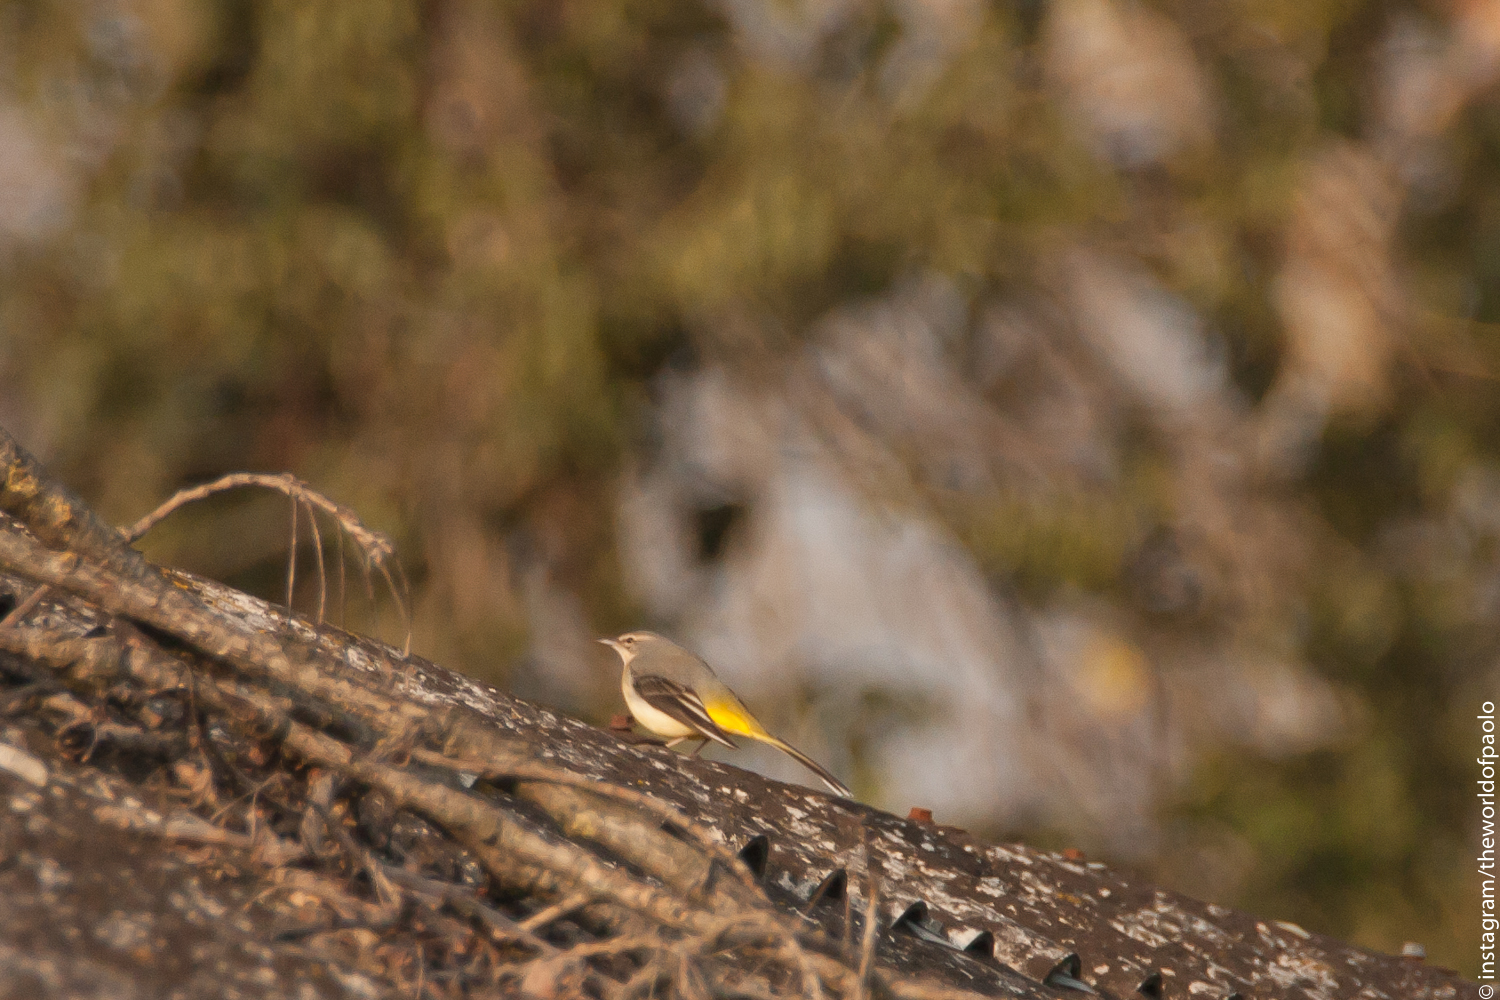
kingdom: Animalia
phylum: Chordata
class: Aves
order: Passeriformes
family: Motacillidae
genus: Motacilla
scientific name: Motacilla cinerea
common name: Grey wagtail
